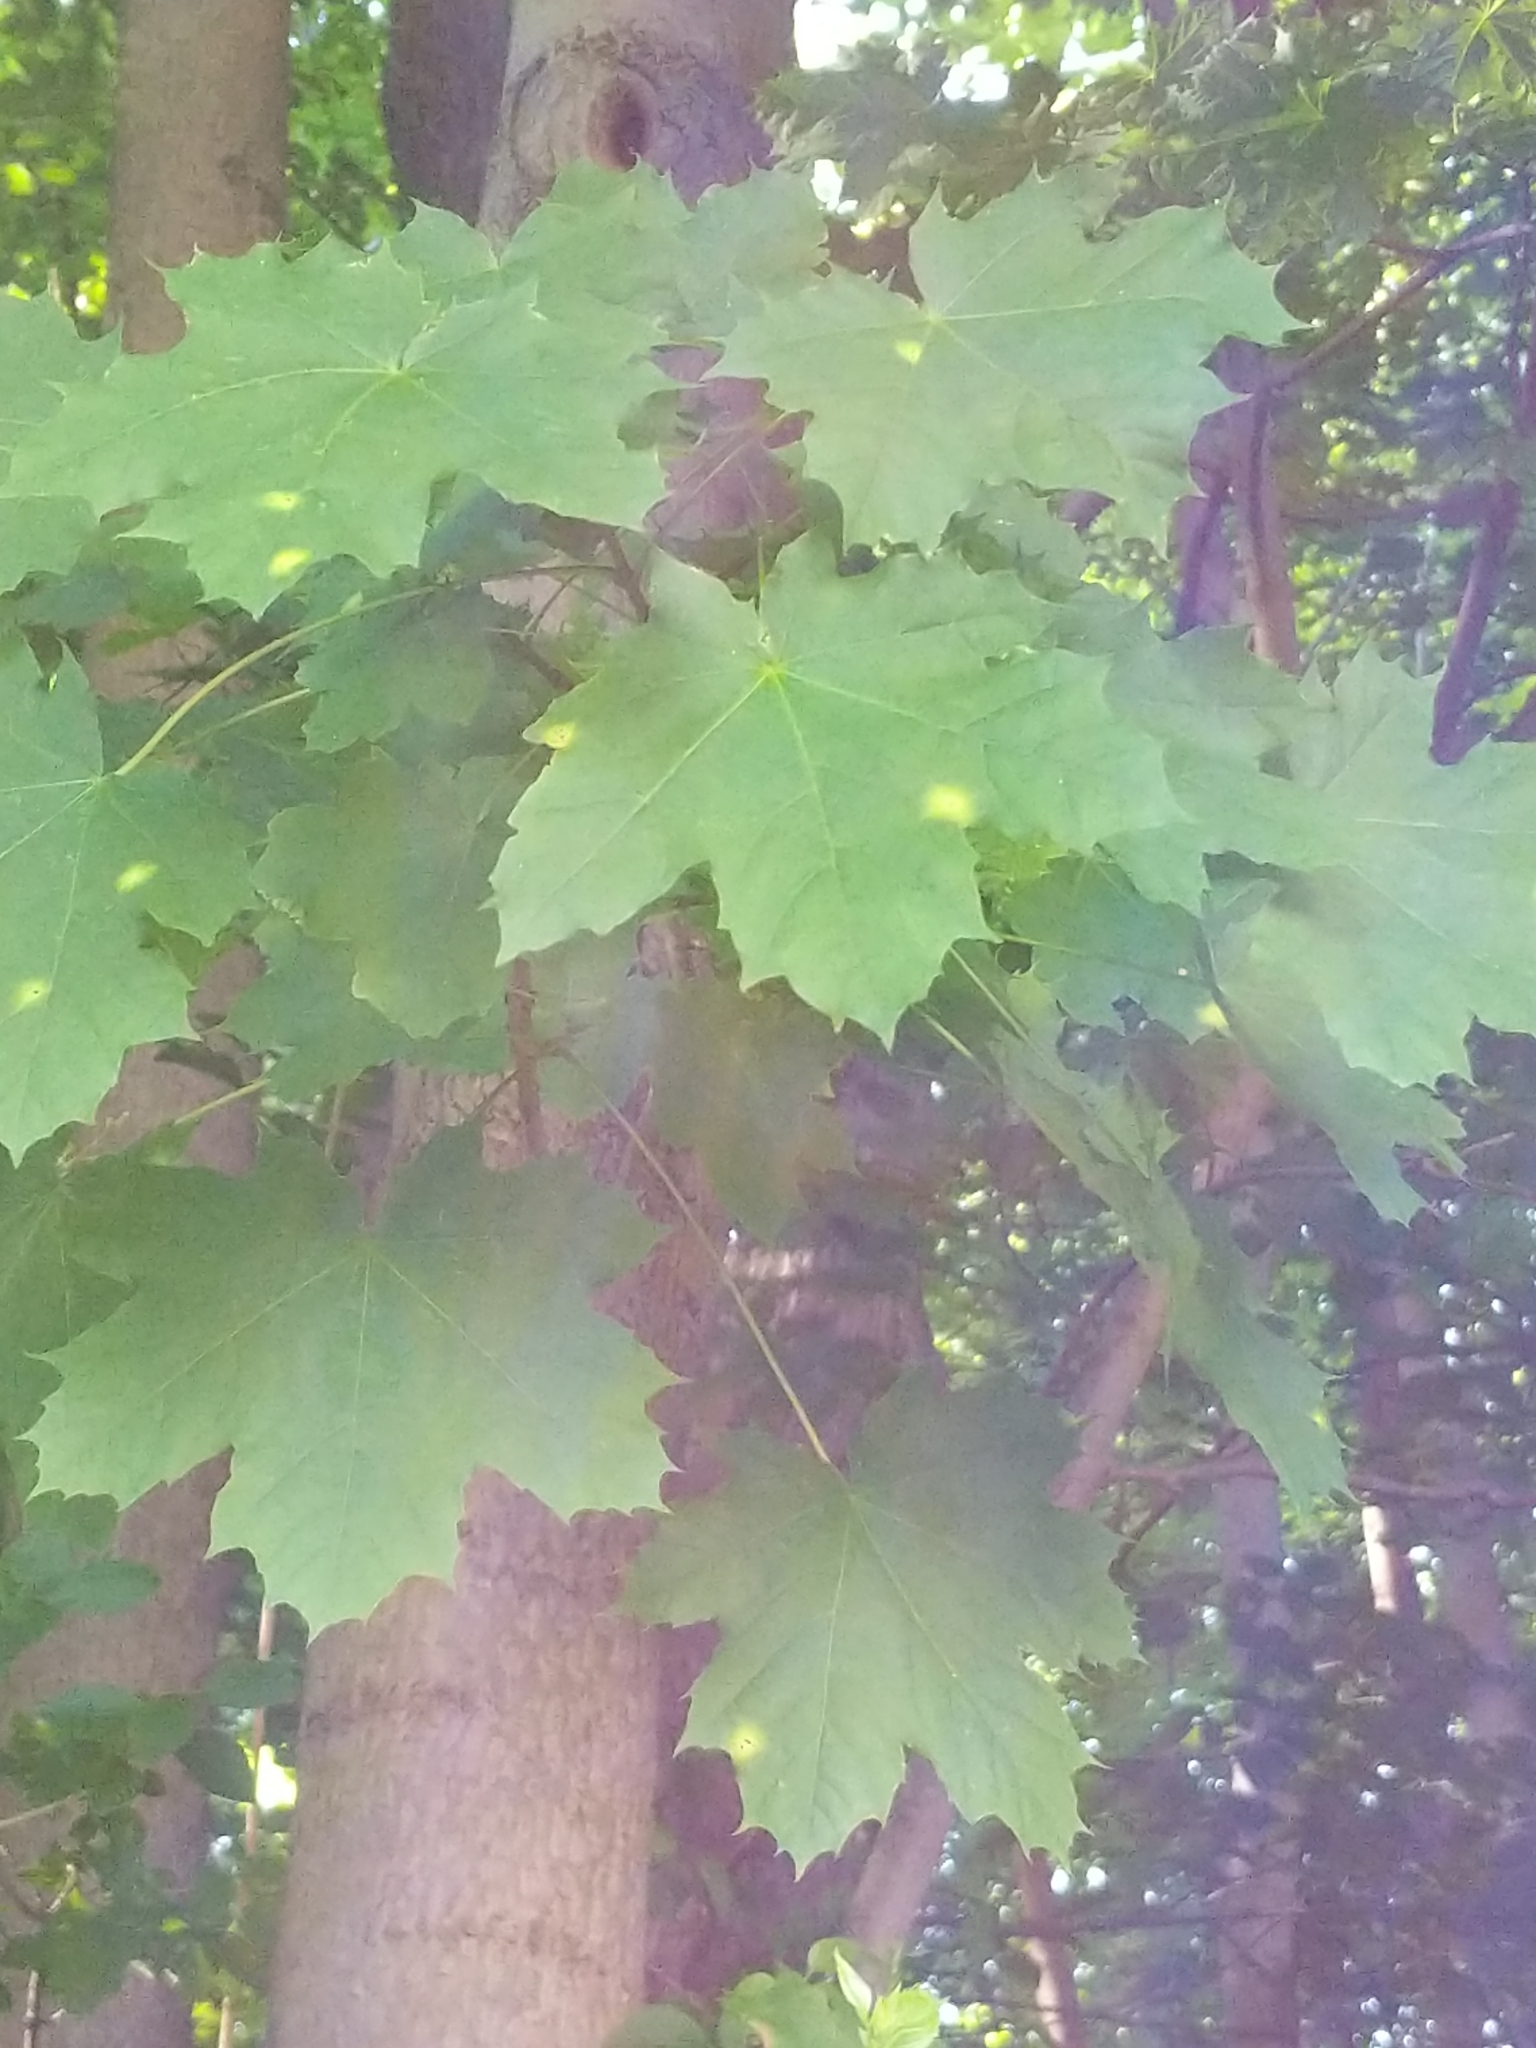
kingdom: Plantae
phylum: Tracheophyta
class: Magnoliopsida
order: Sapindales
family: Sapindaceae
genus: Acer
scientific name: Acer platanoides
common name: Norway maple
